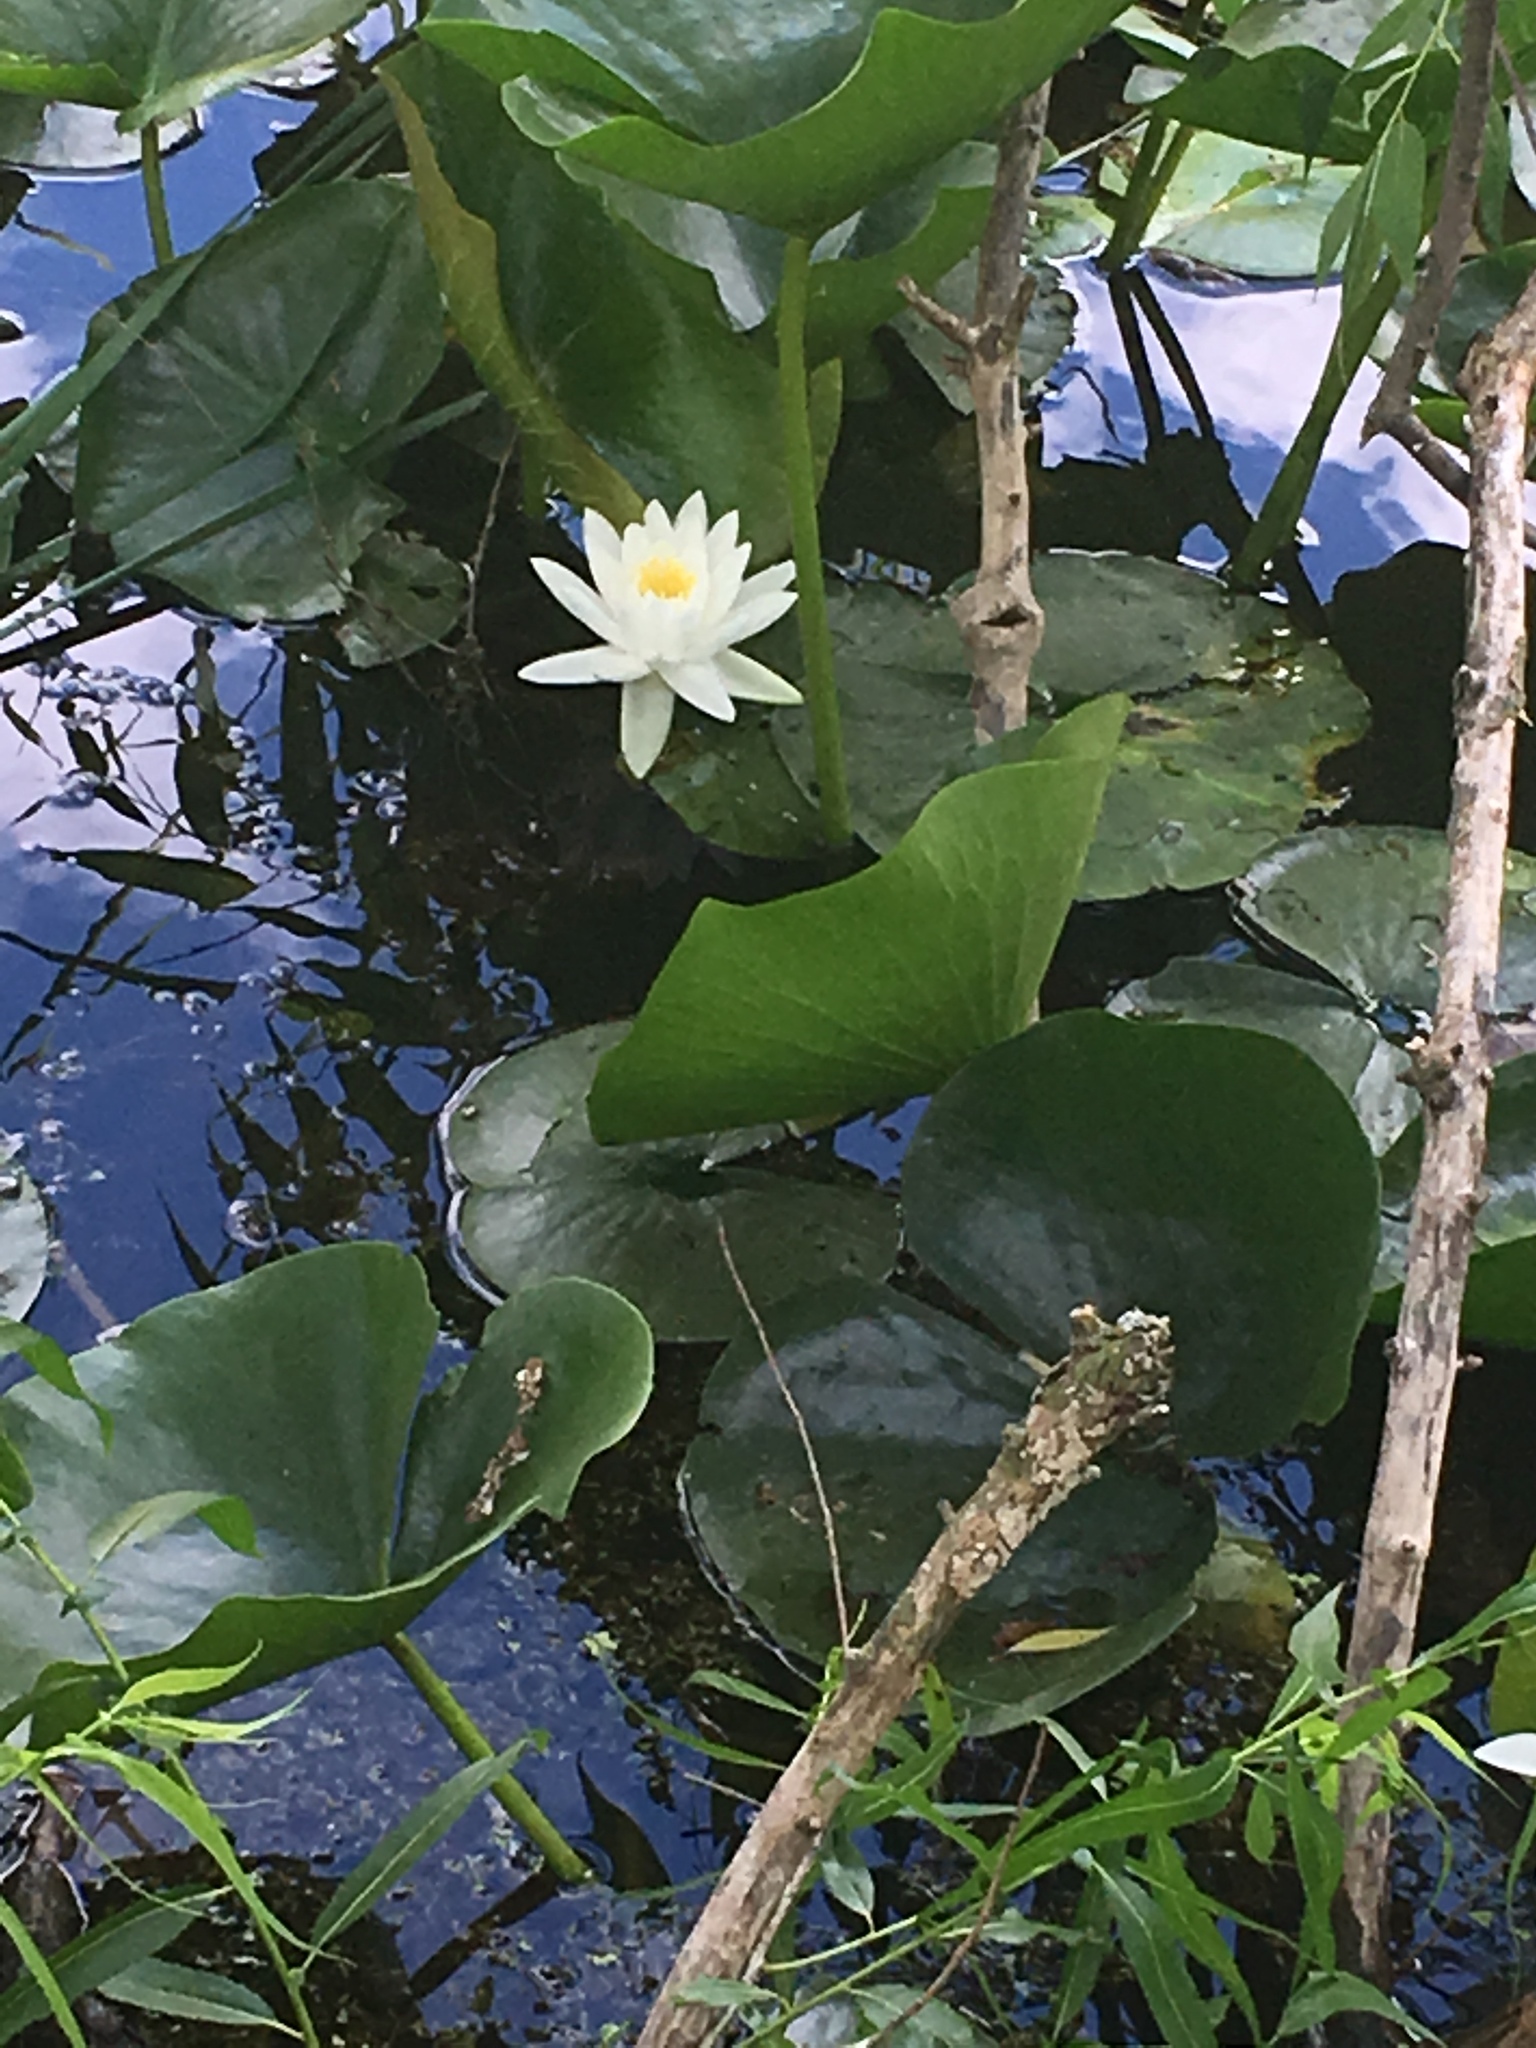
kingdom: Plantae
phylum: Tracheophyta
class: Magnoliopsida
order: Nymphaeales
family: Nymphaeaceae
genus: Nymphaea
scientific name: Nymphaea odorata
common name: Fragrant water-lily
